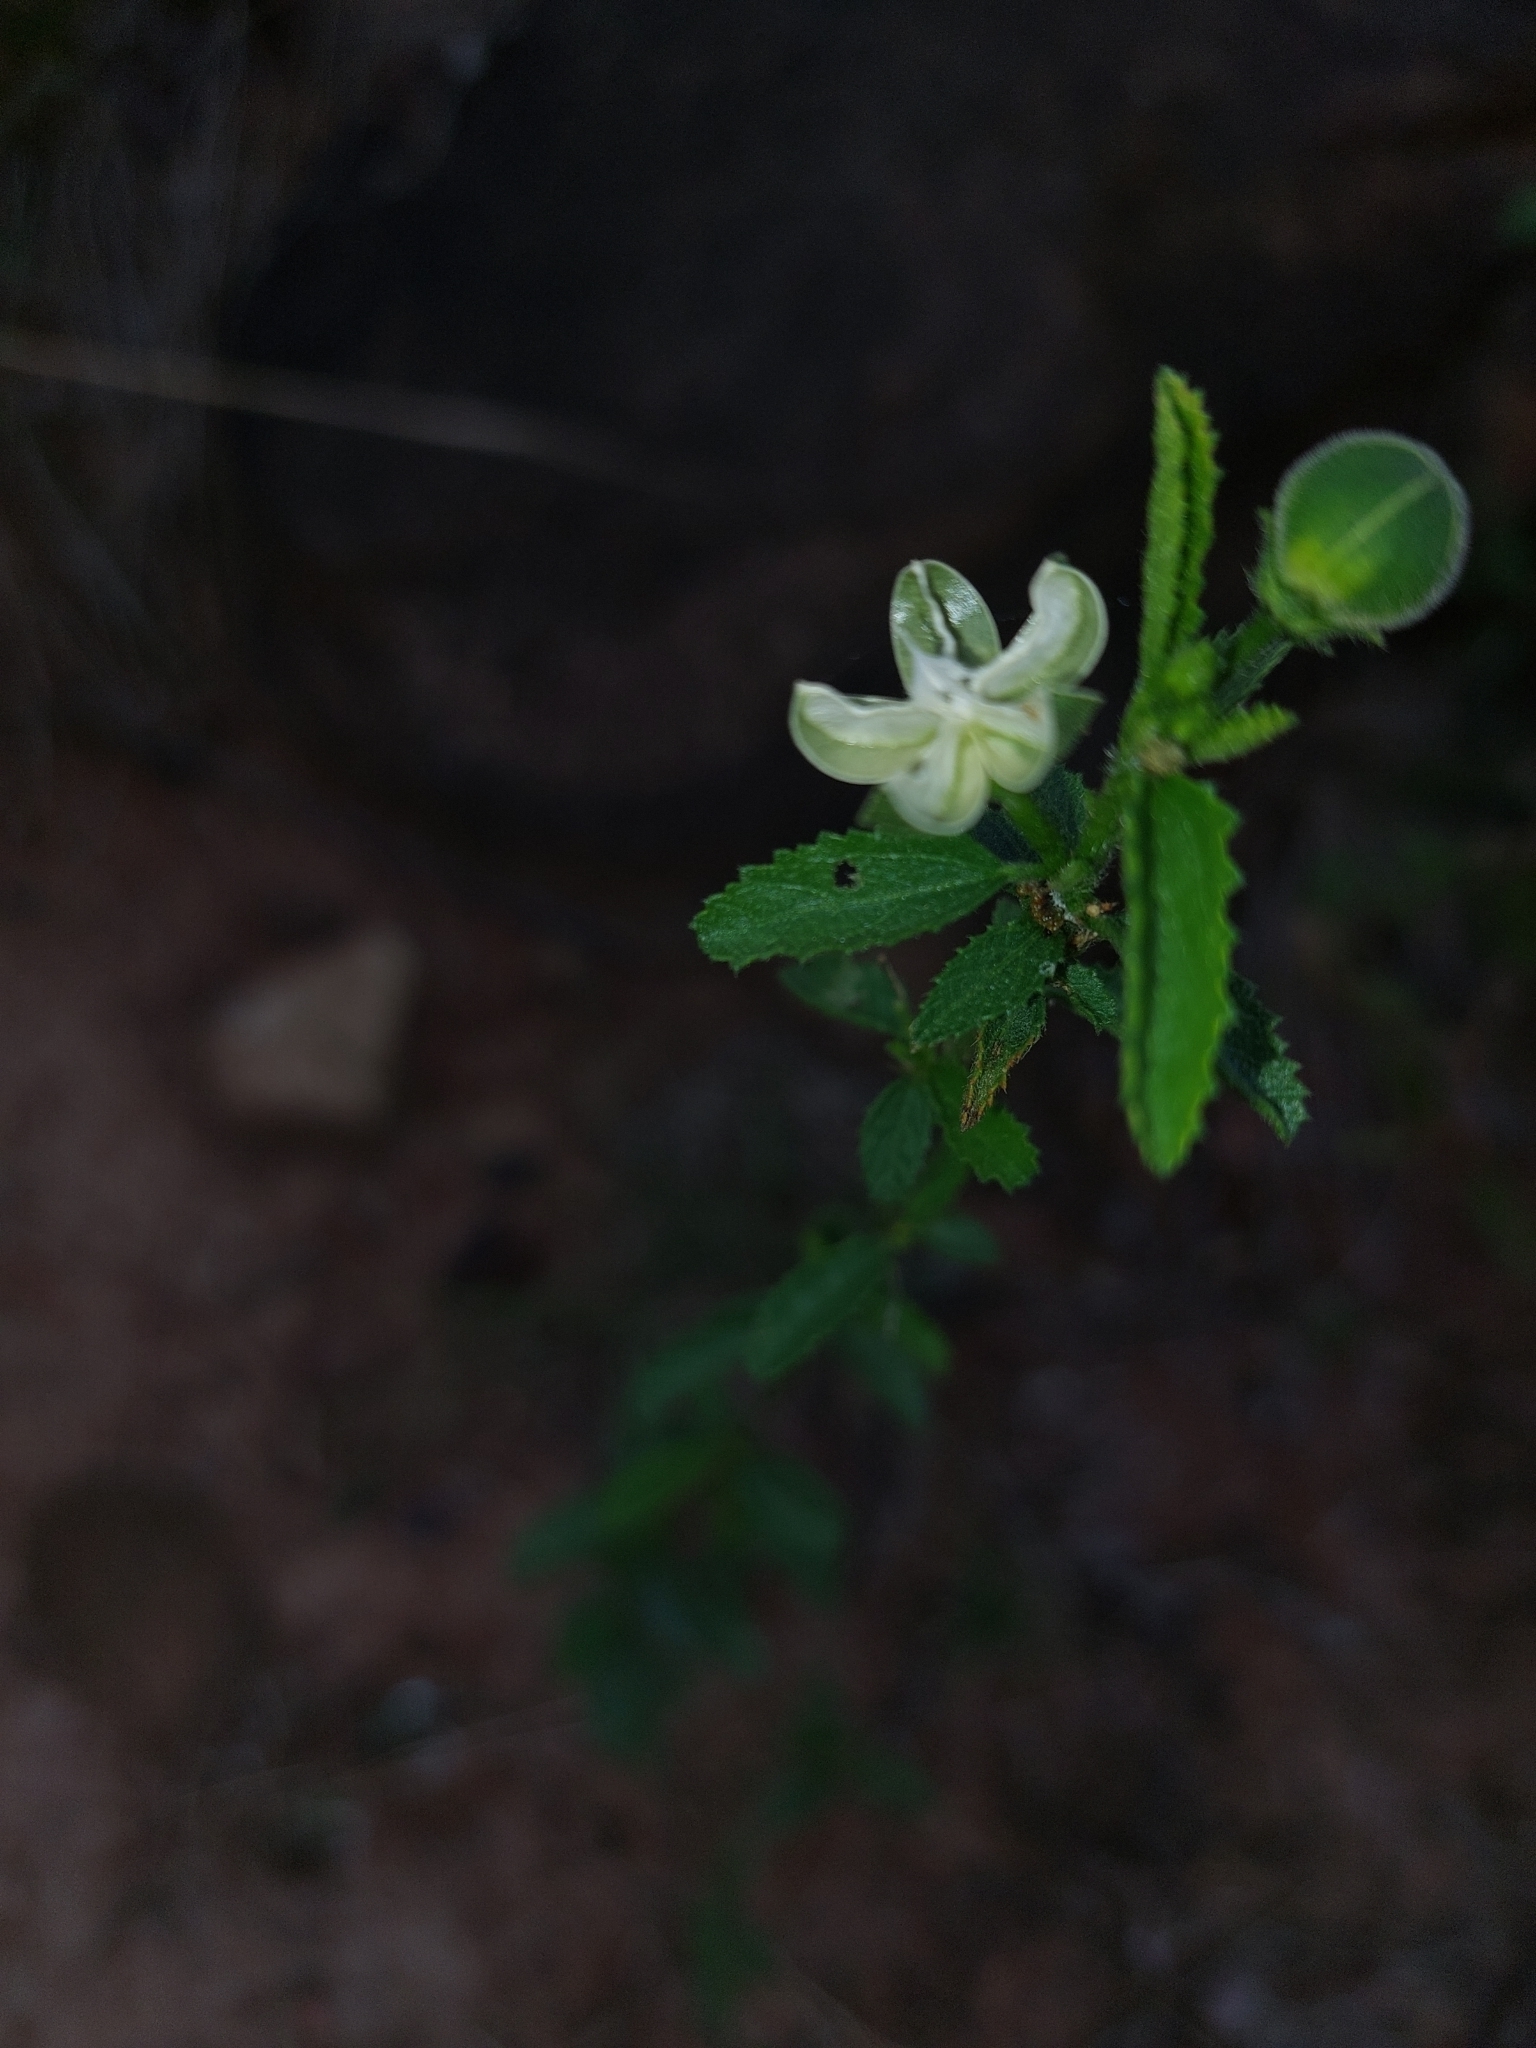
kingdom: Plantae
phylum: Tracheophyta
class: Magnoliopsida
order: Malvales
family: Malvaceae
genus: Hibiscus
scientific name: Hibiscus micranthus
